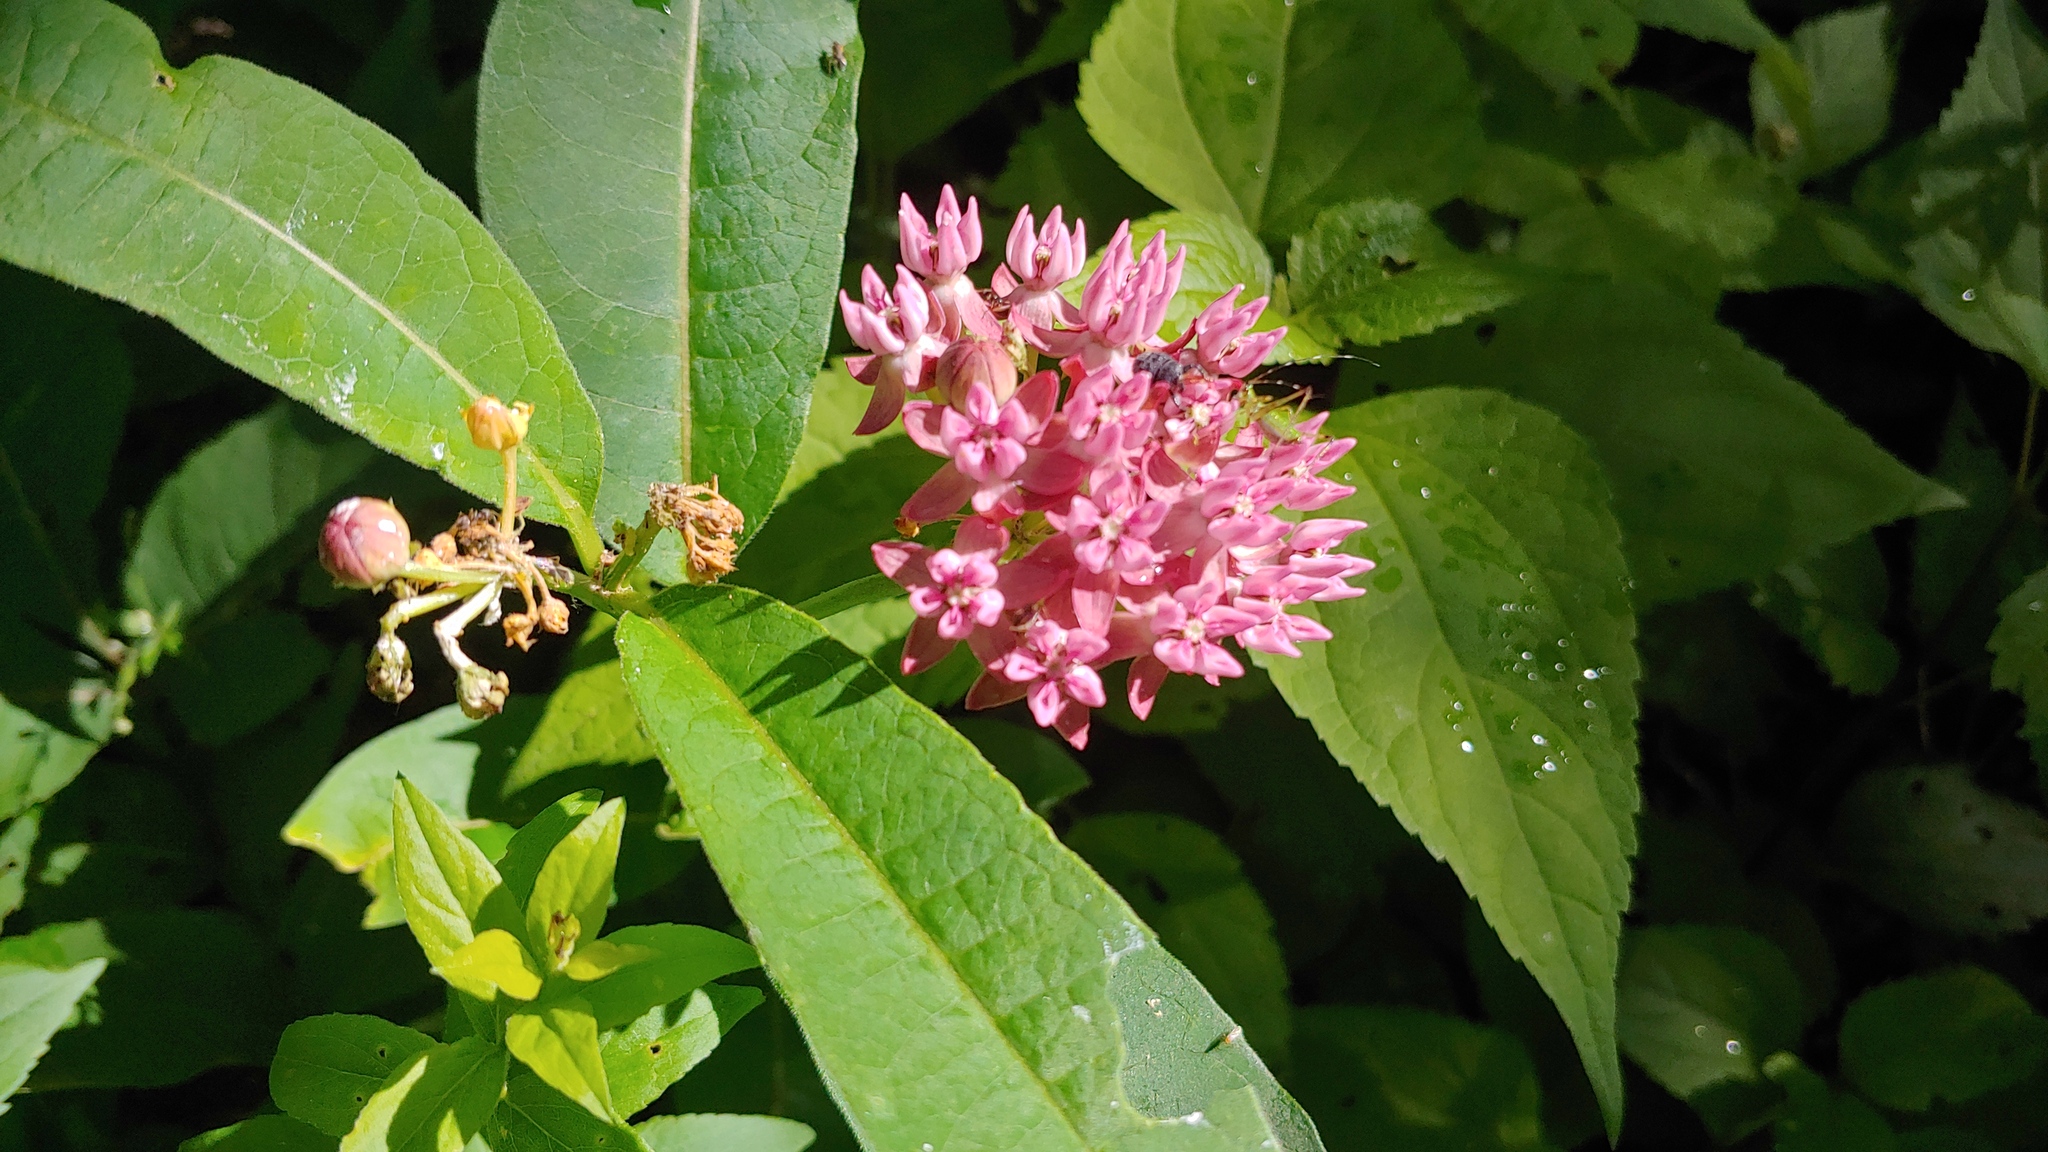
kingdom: Plantae
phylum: Tracheophyta
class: Magnoliopsida
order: Gentianales
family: Apocynaceae
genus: Asclepias
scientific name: Asclepias purpurascens
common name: Purple milkweed
